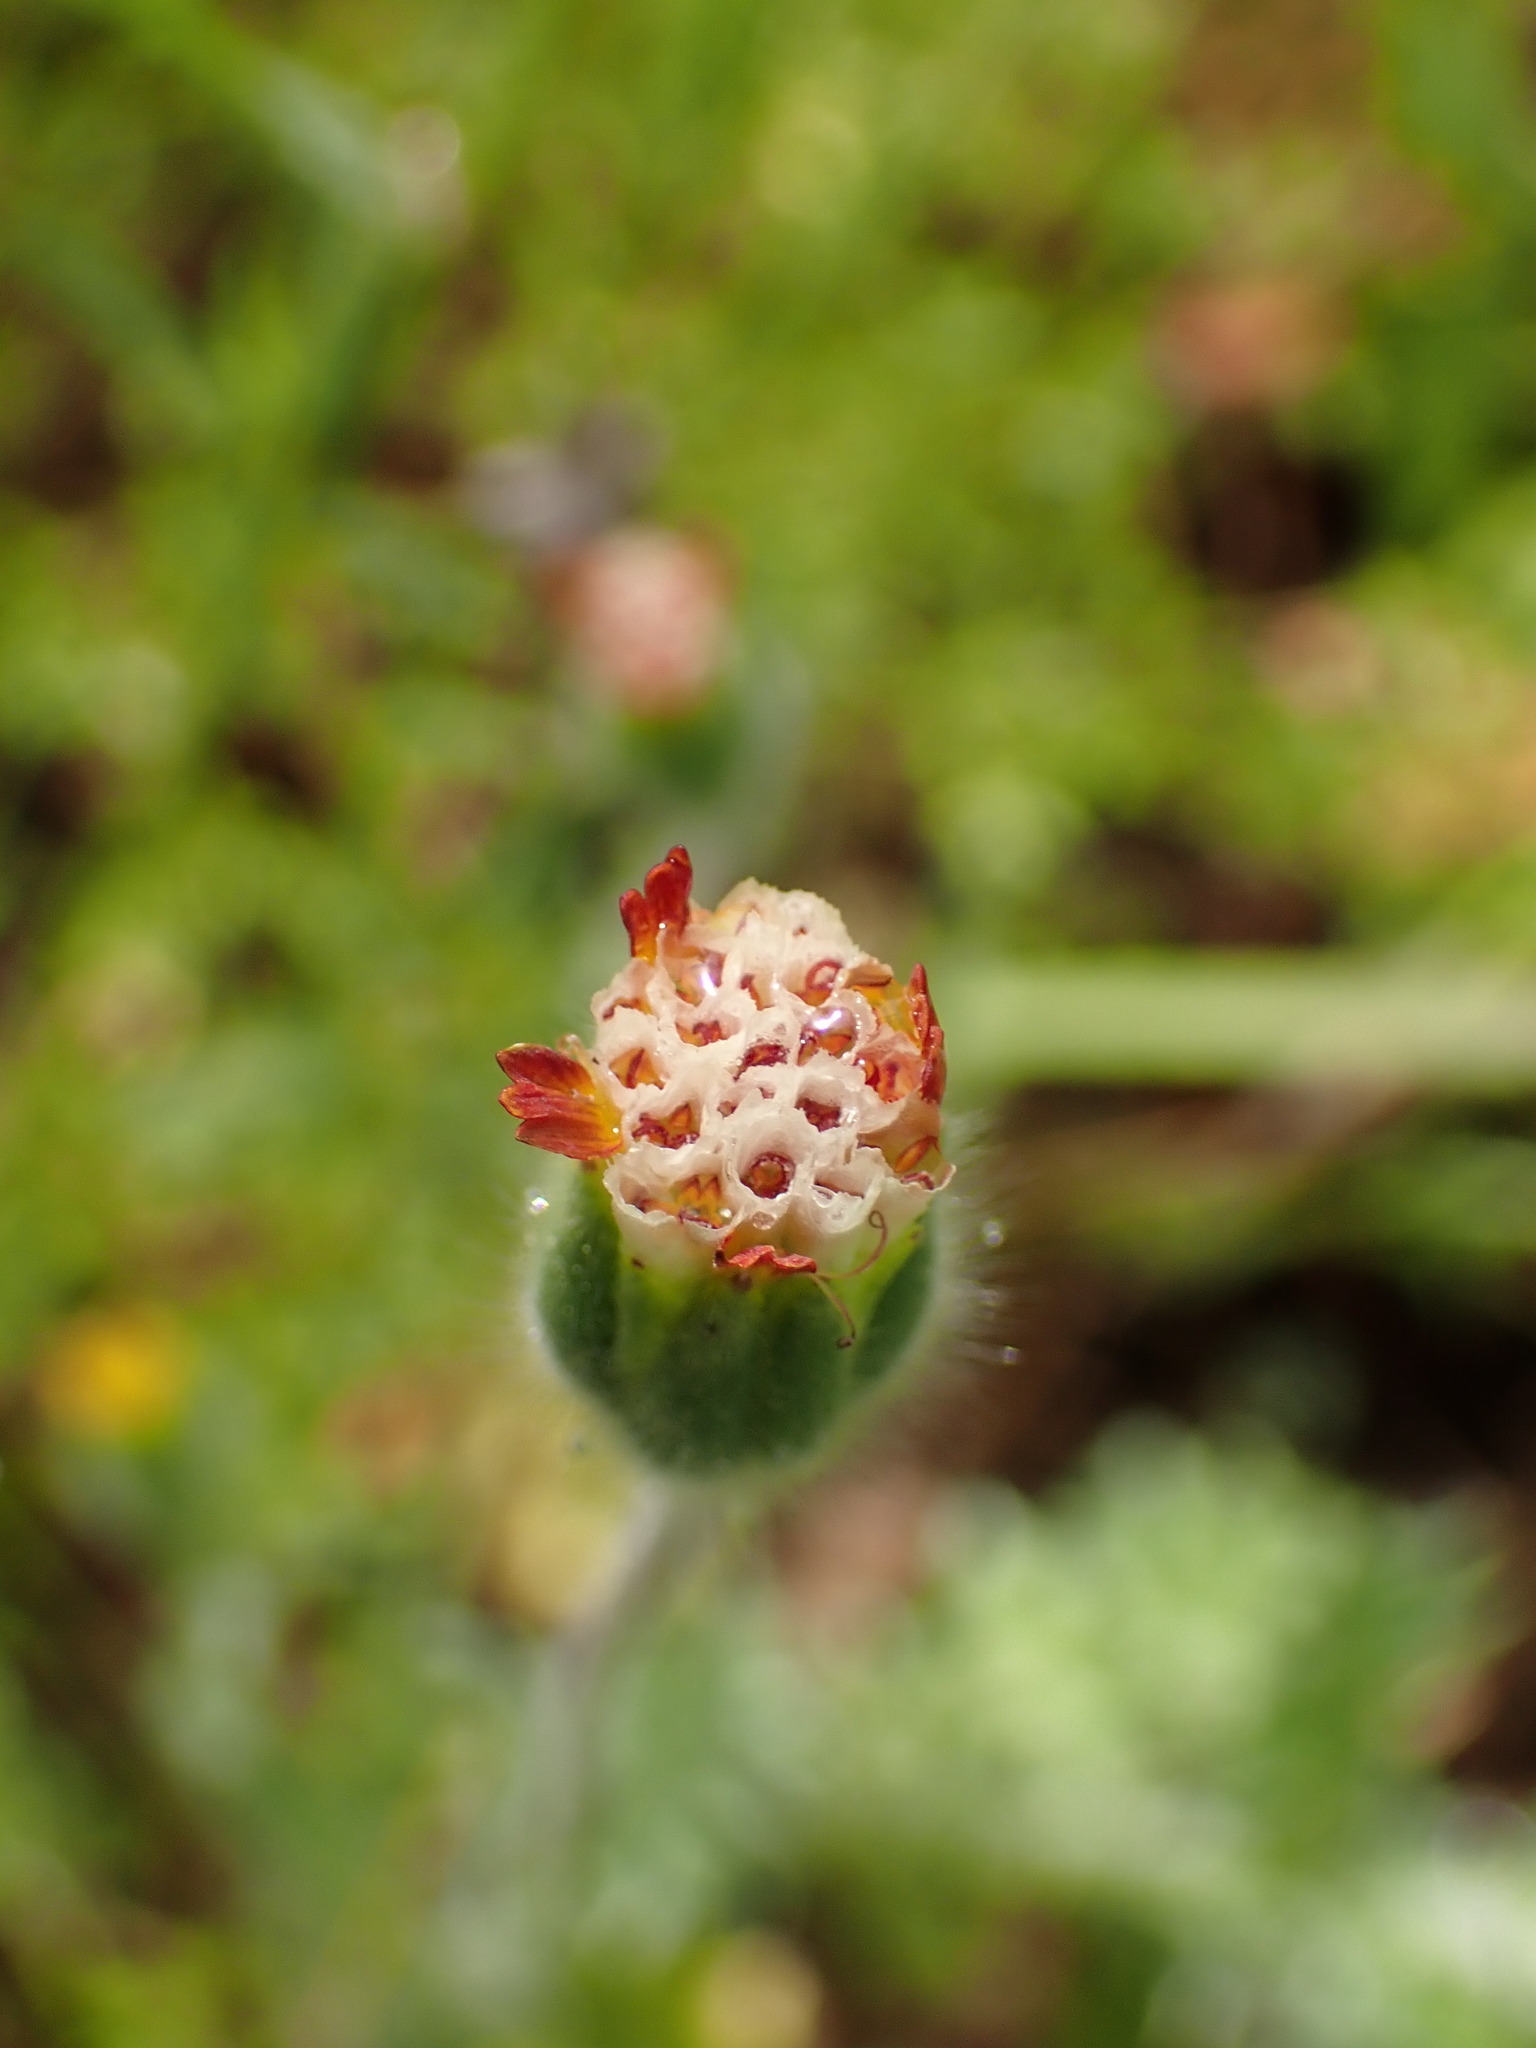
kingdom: Plantae
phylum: Tracheophyta
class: Magnoliopsida
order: Asterales
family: Asteraceae
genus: Achyrachaena
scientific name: Achyrachaena mollis
